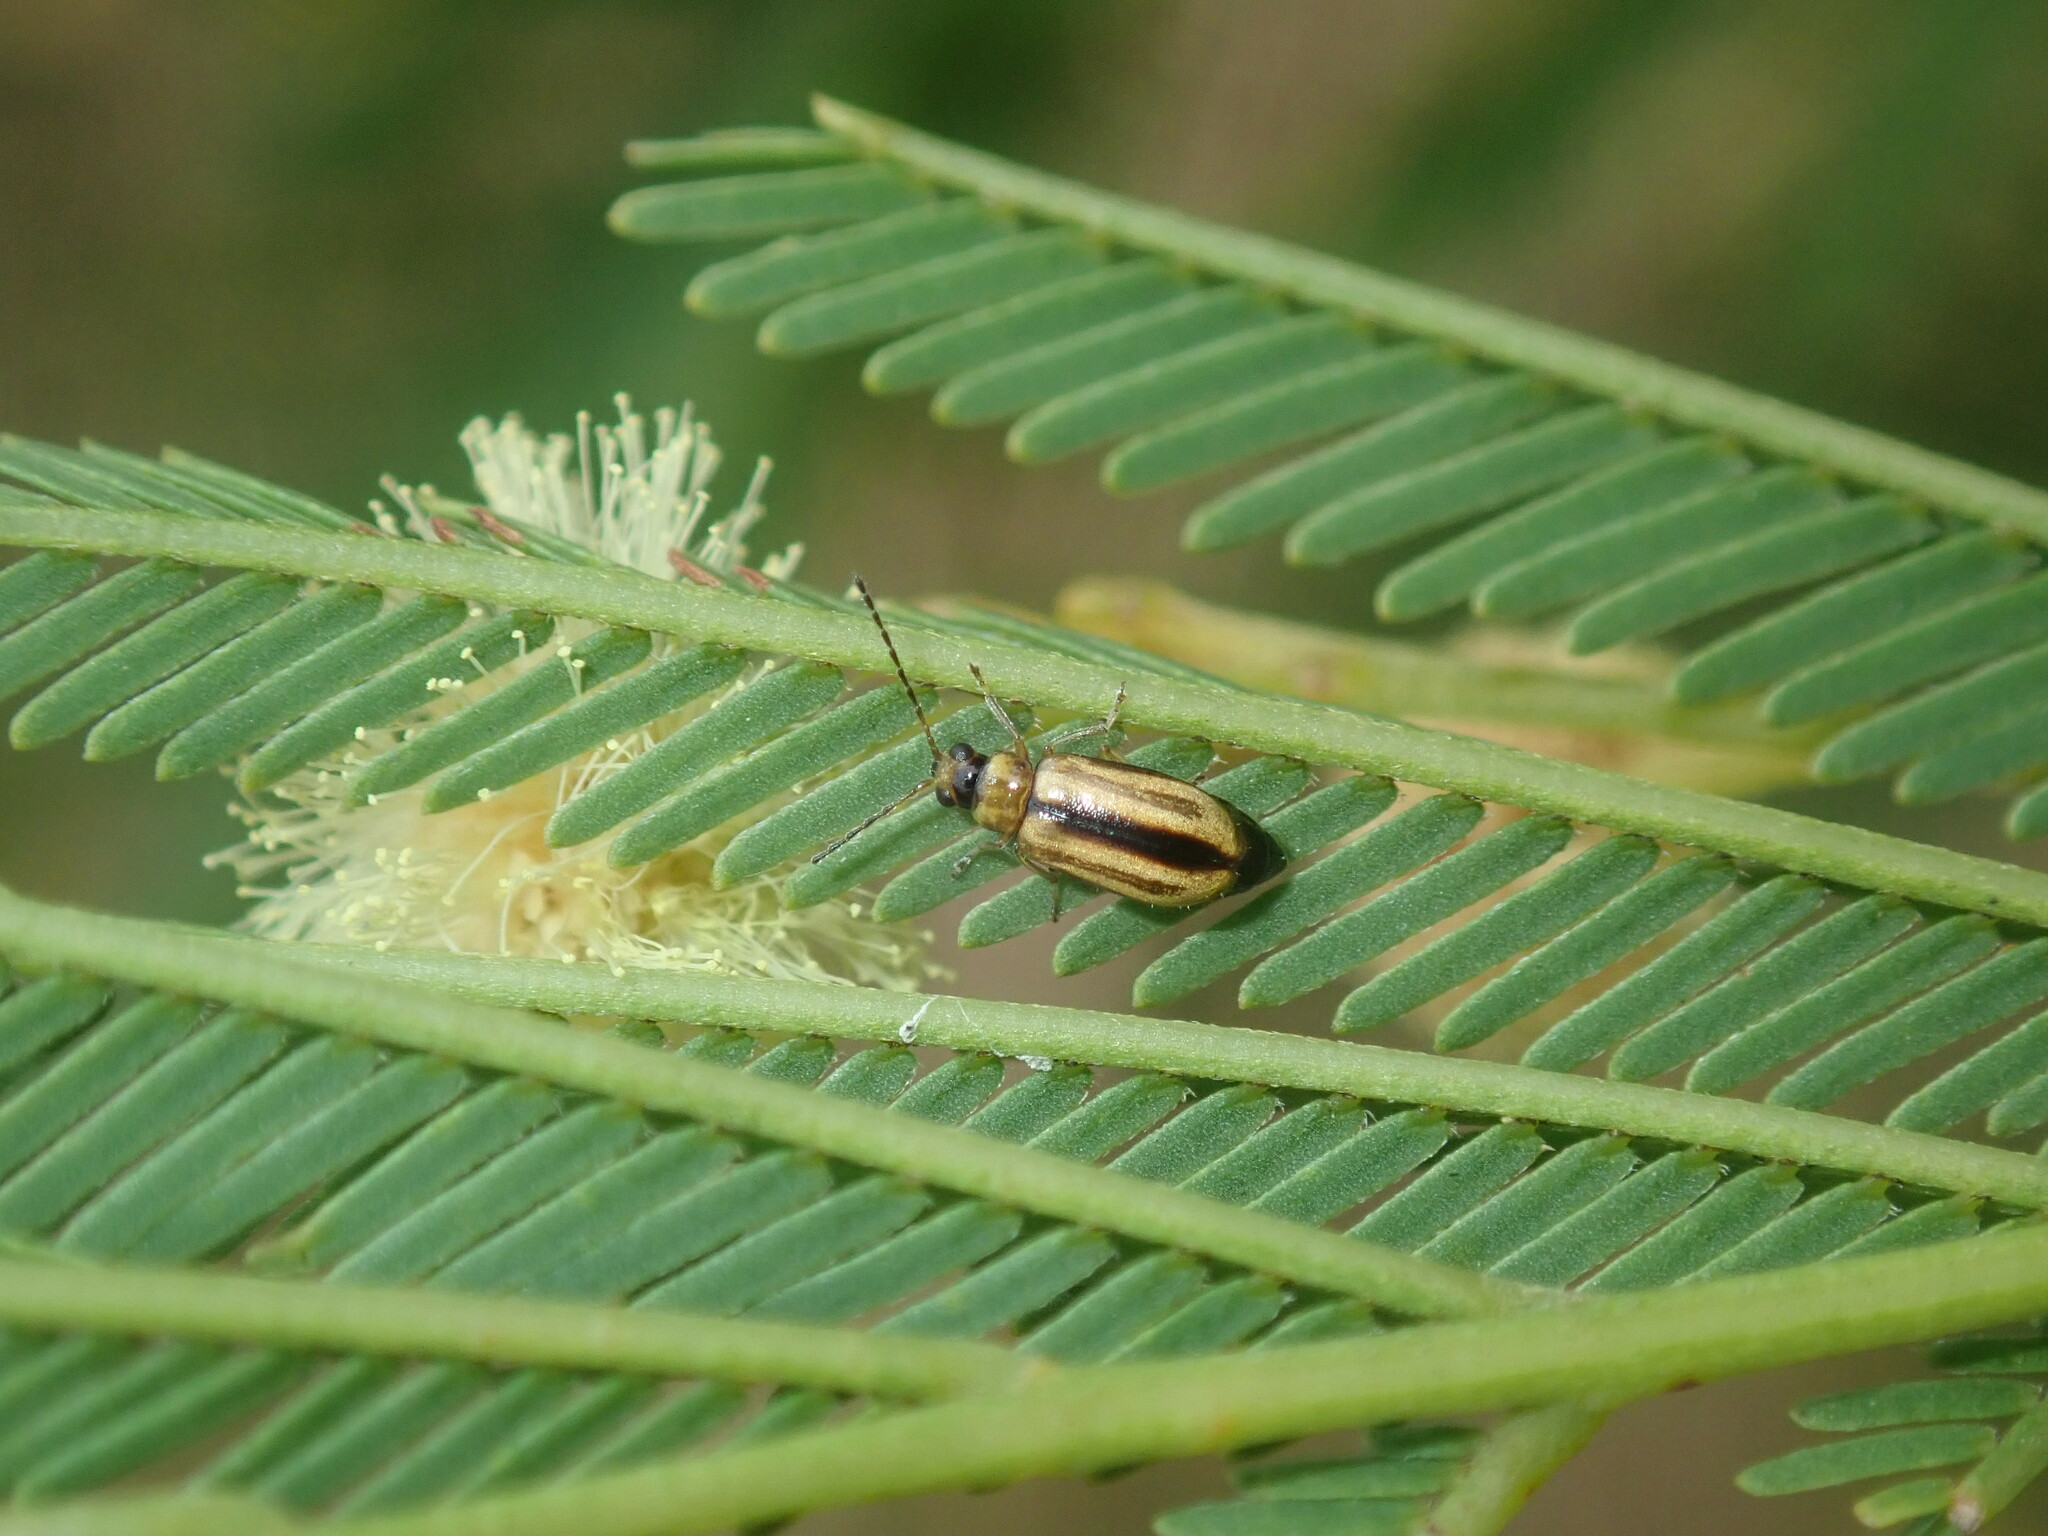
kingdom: Animalia
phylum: Arthropoda
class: Insecta
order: Coleoptera
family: Chrysomelidae
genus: Monolepta
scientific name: Monolepta
